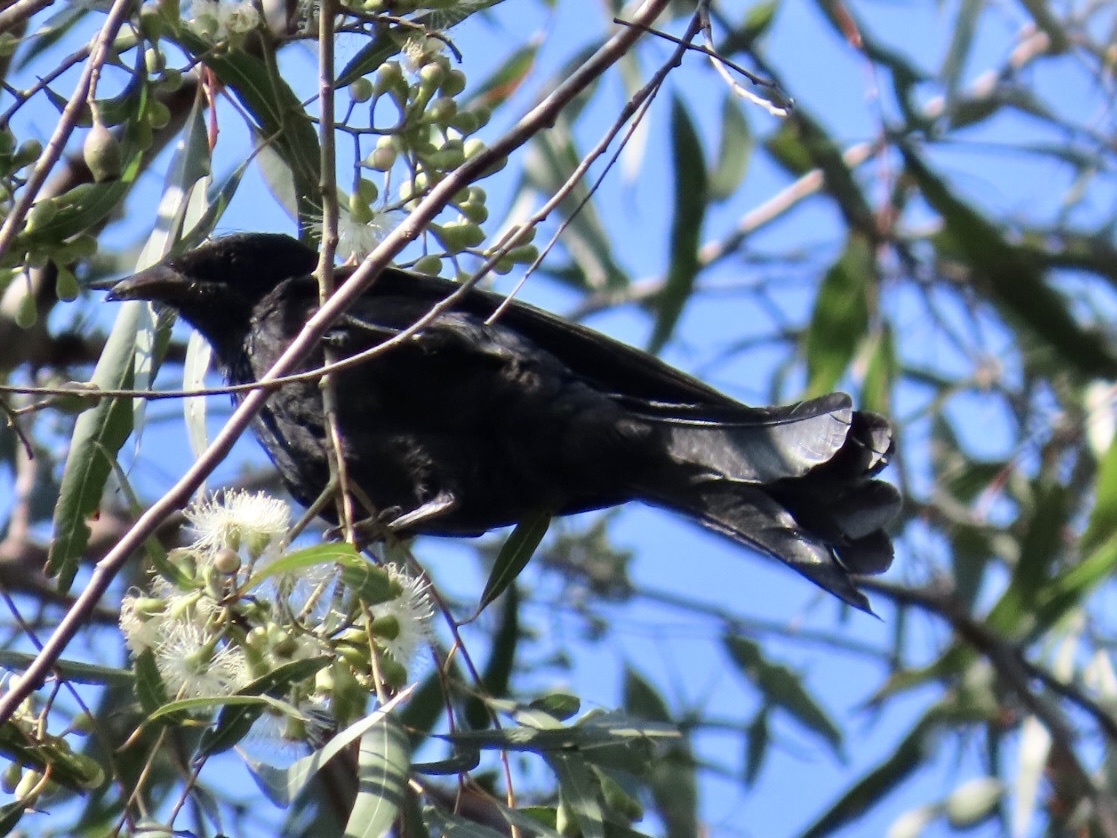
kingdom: Animalia
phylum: Chordata
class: Aves
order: Passeriformes
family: Dicruridae
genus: Dicrurus
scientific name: Dicrurus macrocercus
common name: Black drongo
